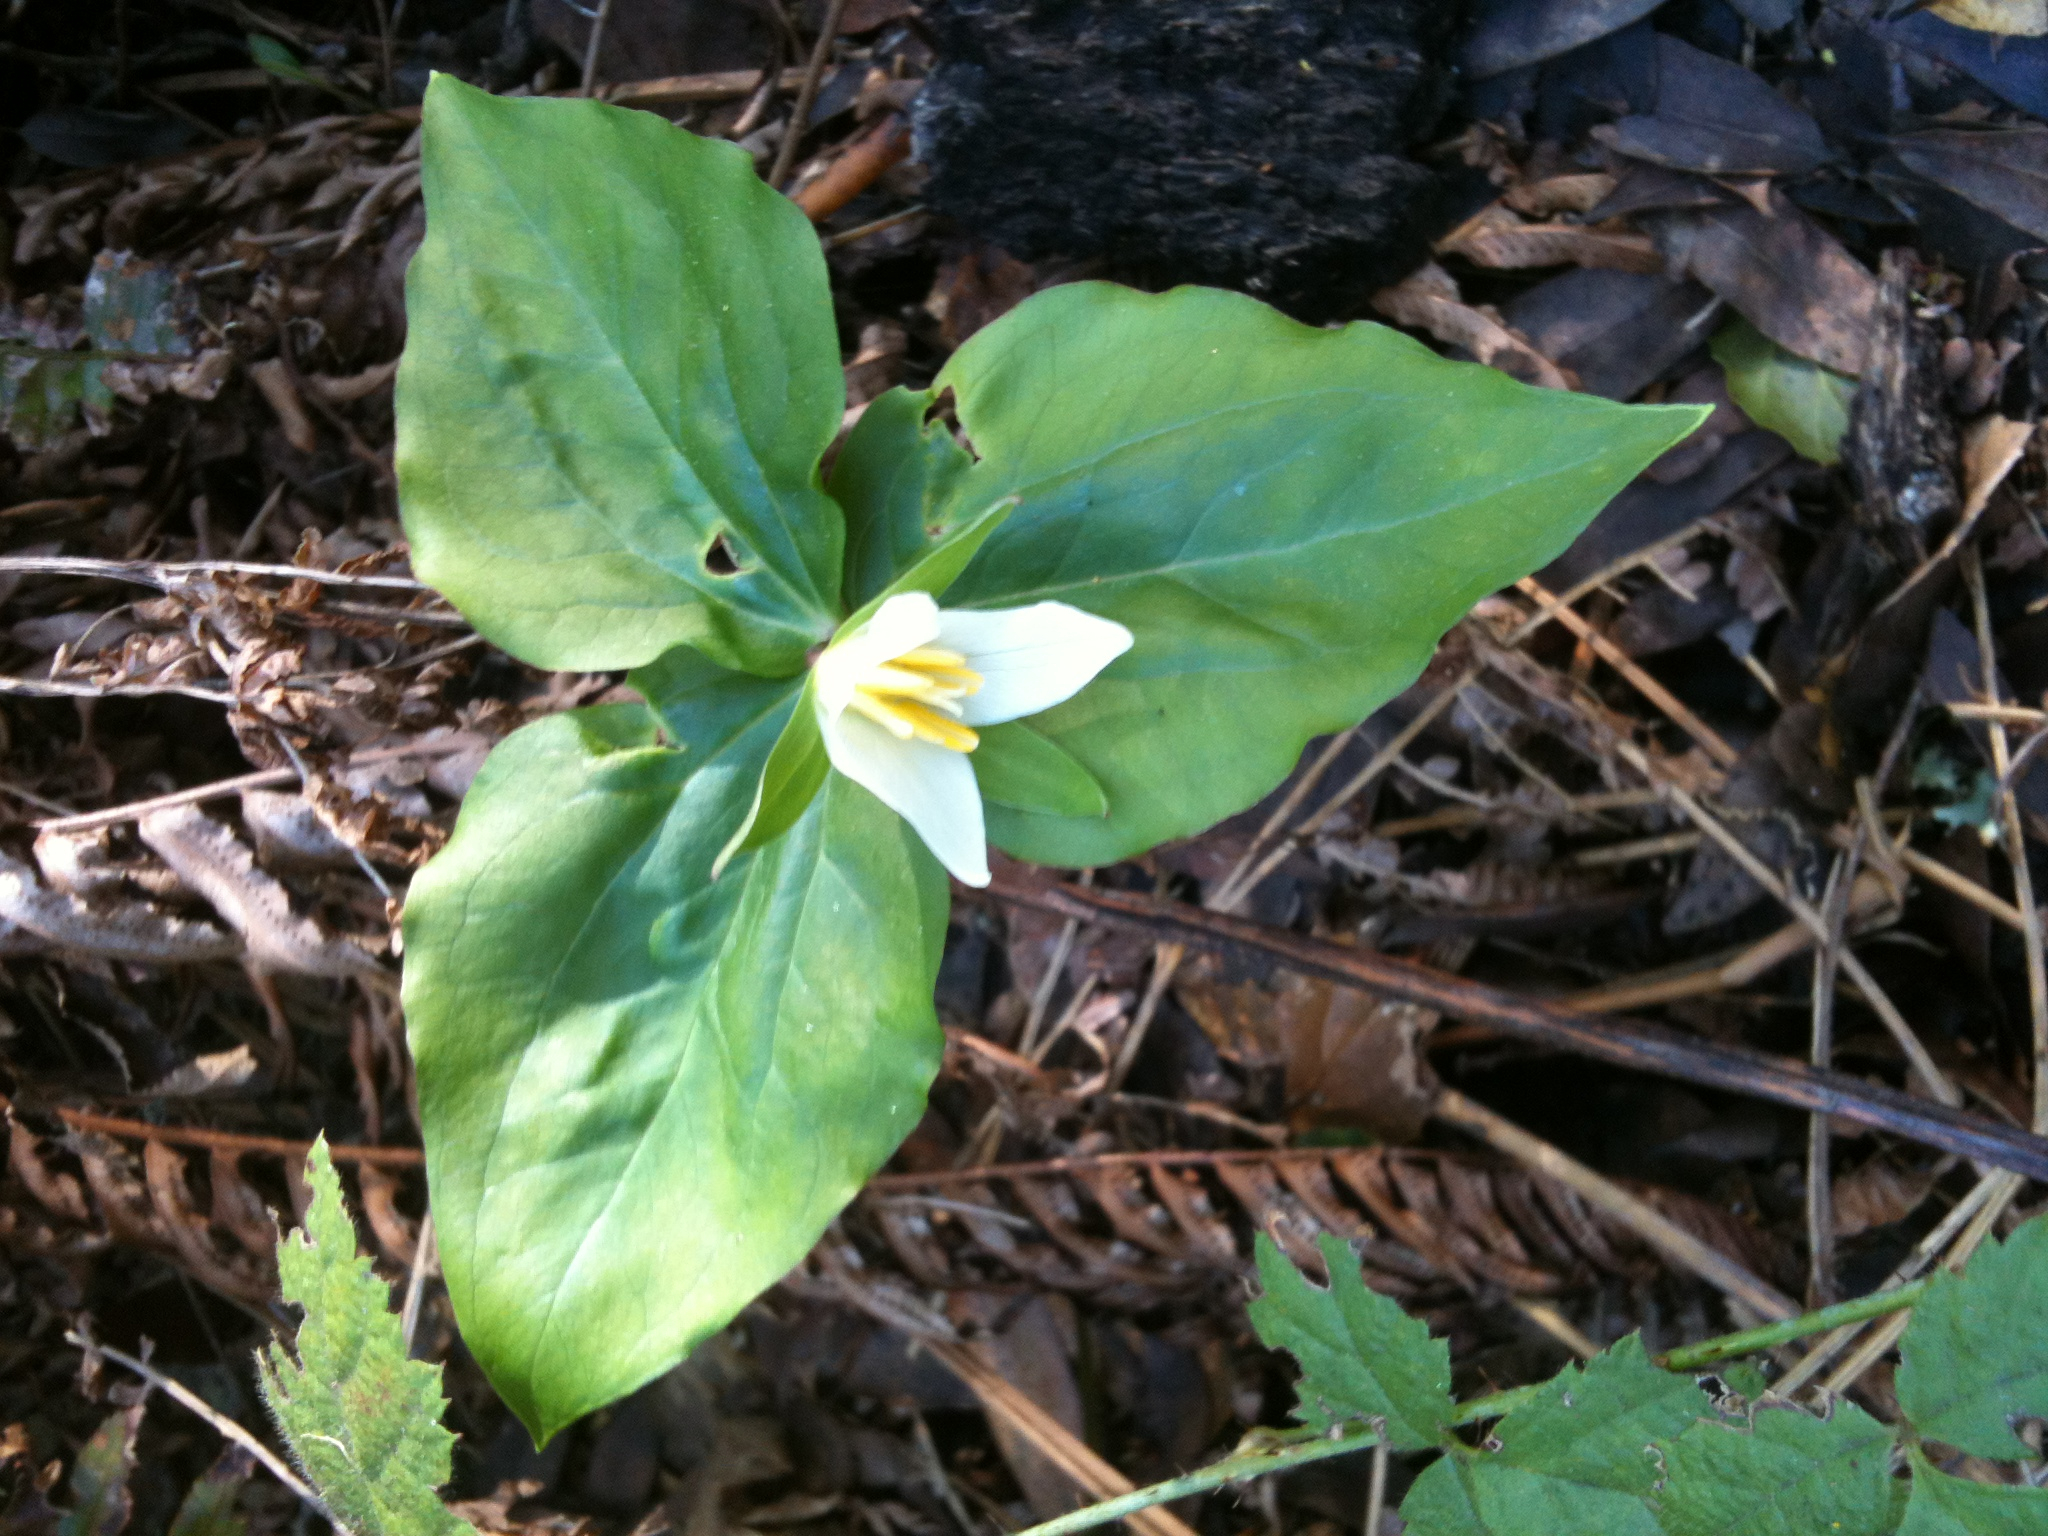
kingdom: Plantae
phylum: Tracheophyta
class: Liliopsida
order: Liliales
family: Melanthiaceae
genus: Trillium
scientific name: Trillium ovatum
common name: Pacific trillium
